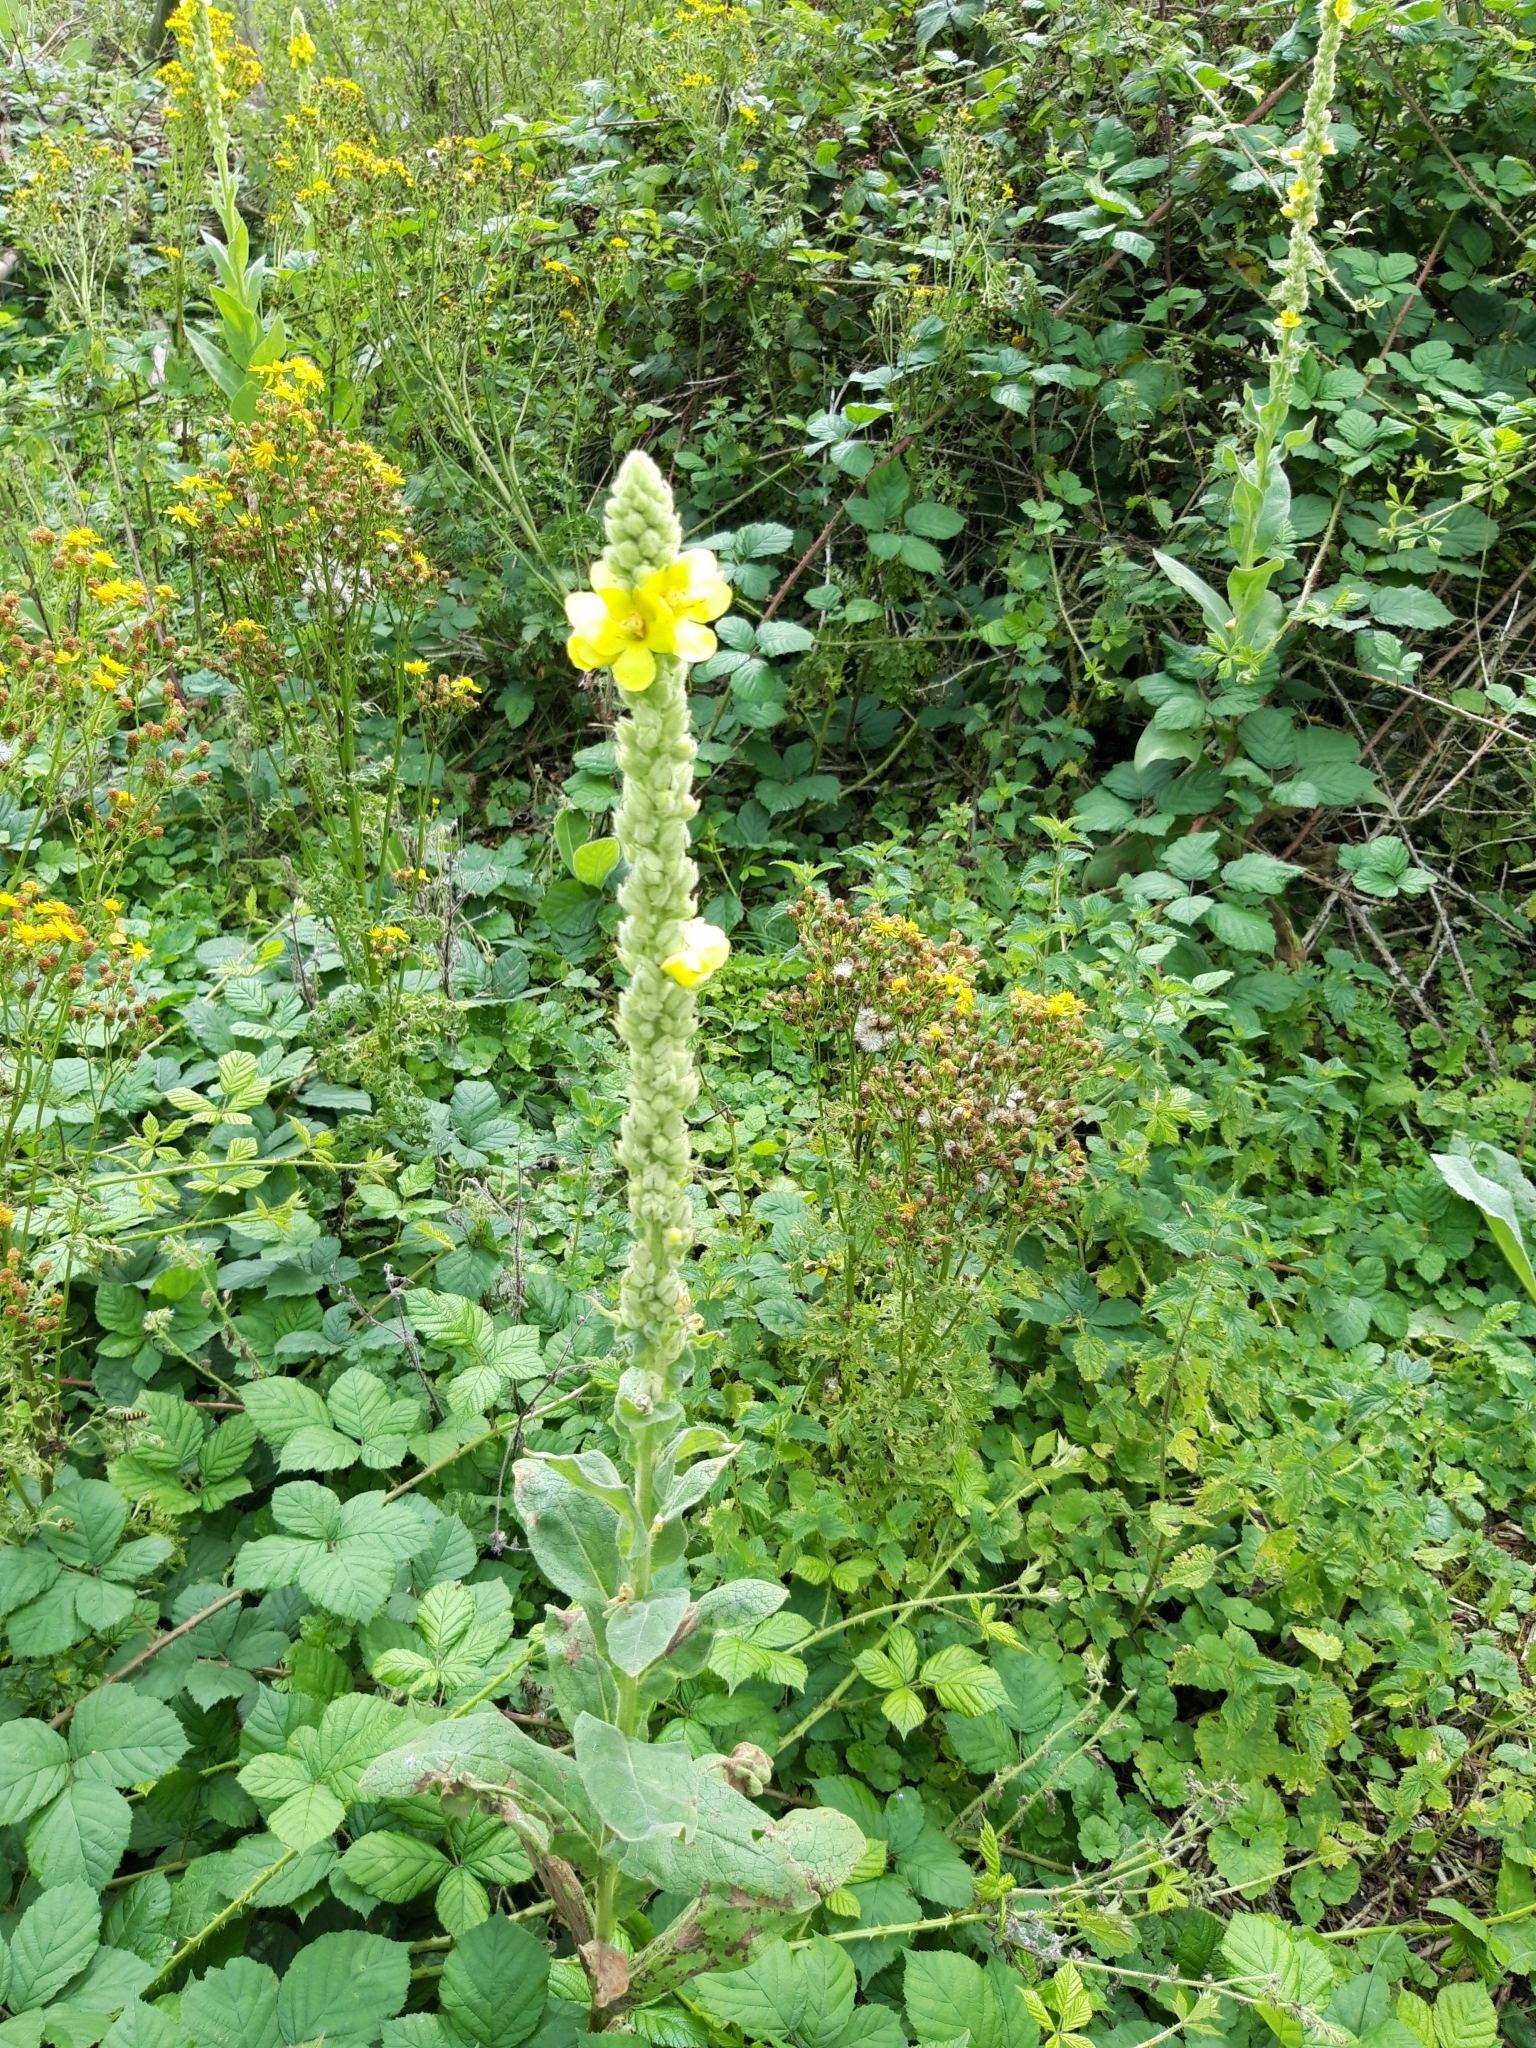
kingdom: Plantae
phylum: Tracheophyta
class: Magnoliopsida
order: Lamiales
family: Scrophulariaceae
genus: Verbascum
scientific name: Verbascum thapsus
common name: Common mullein
